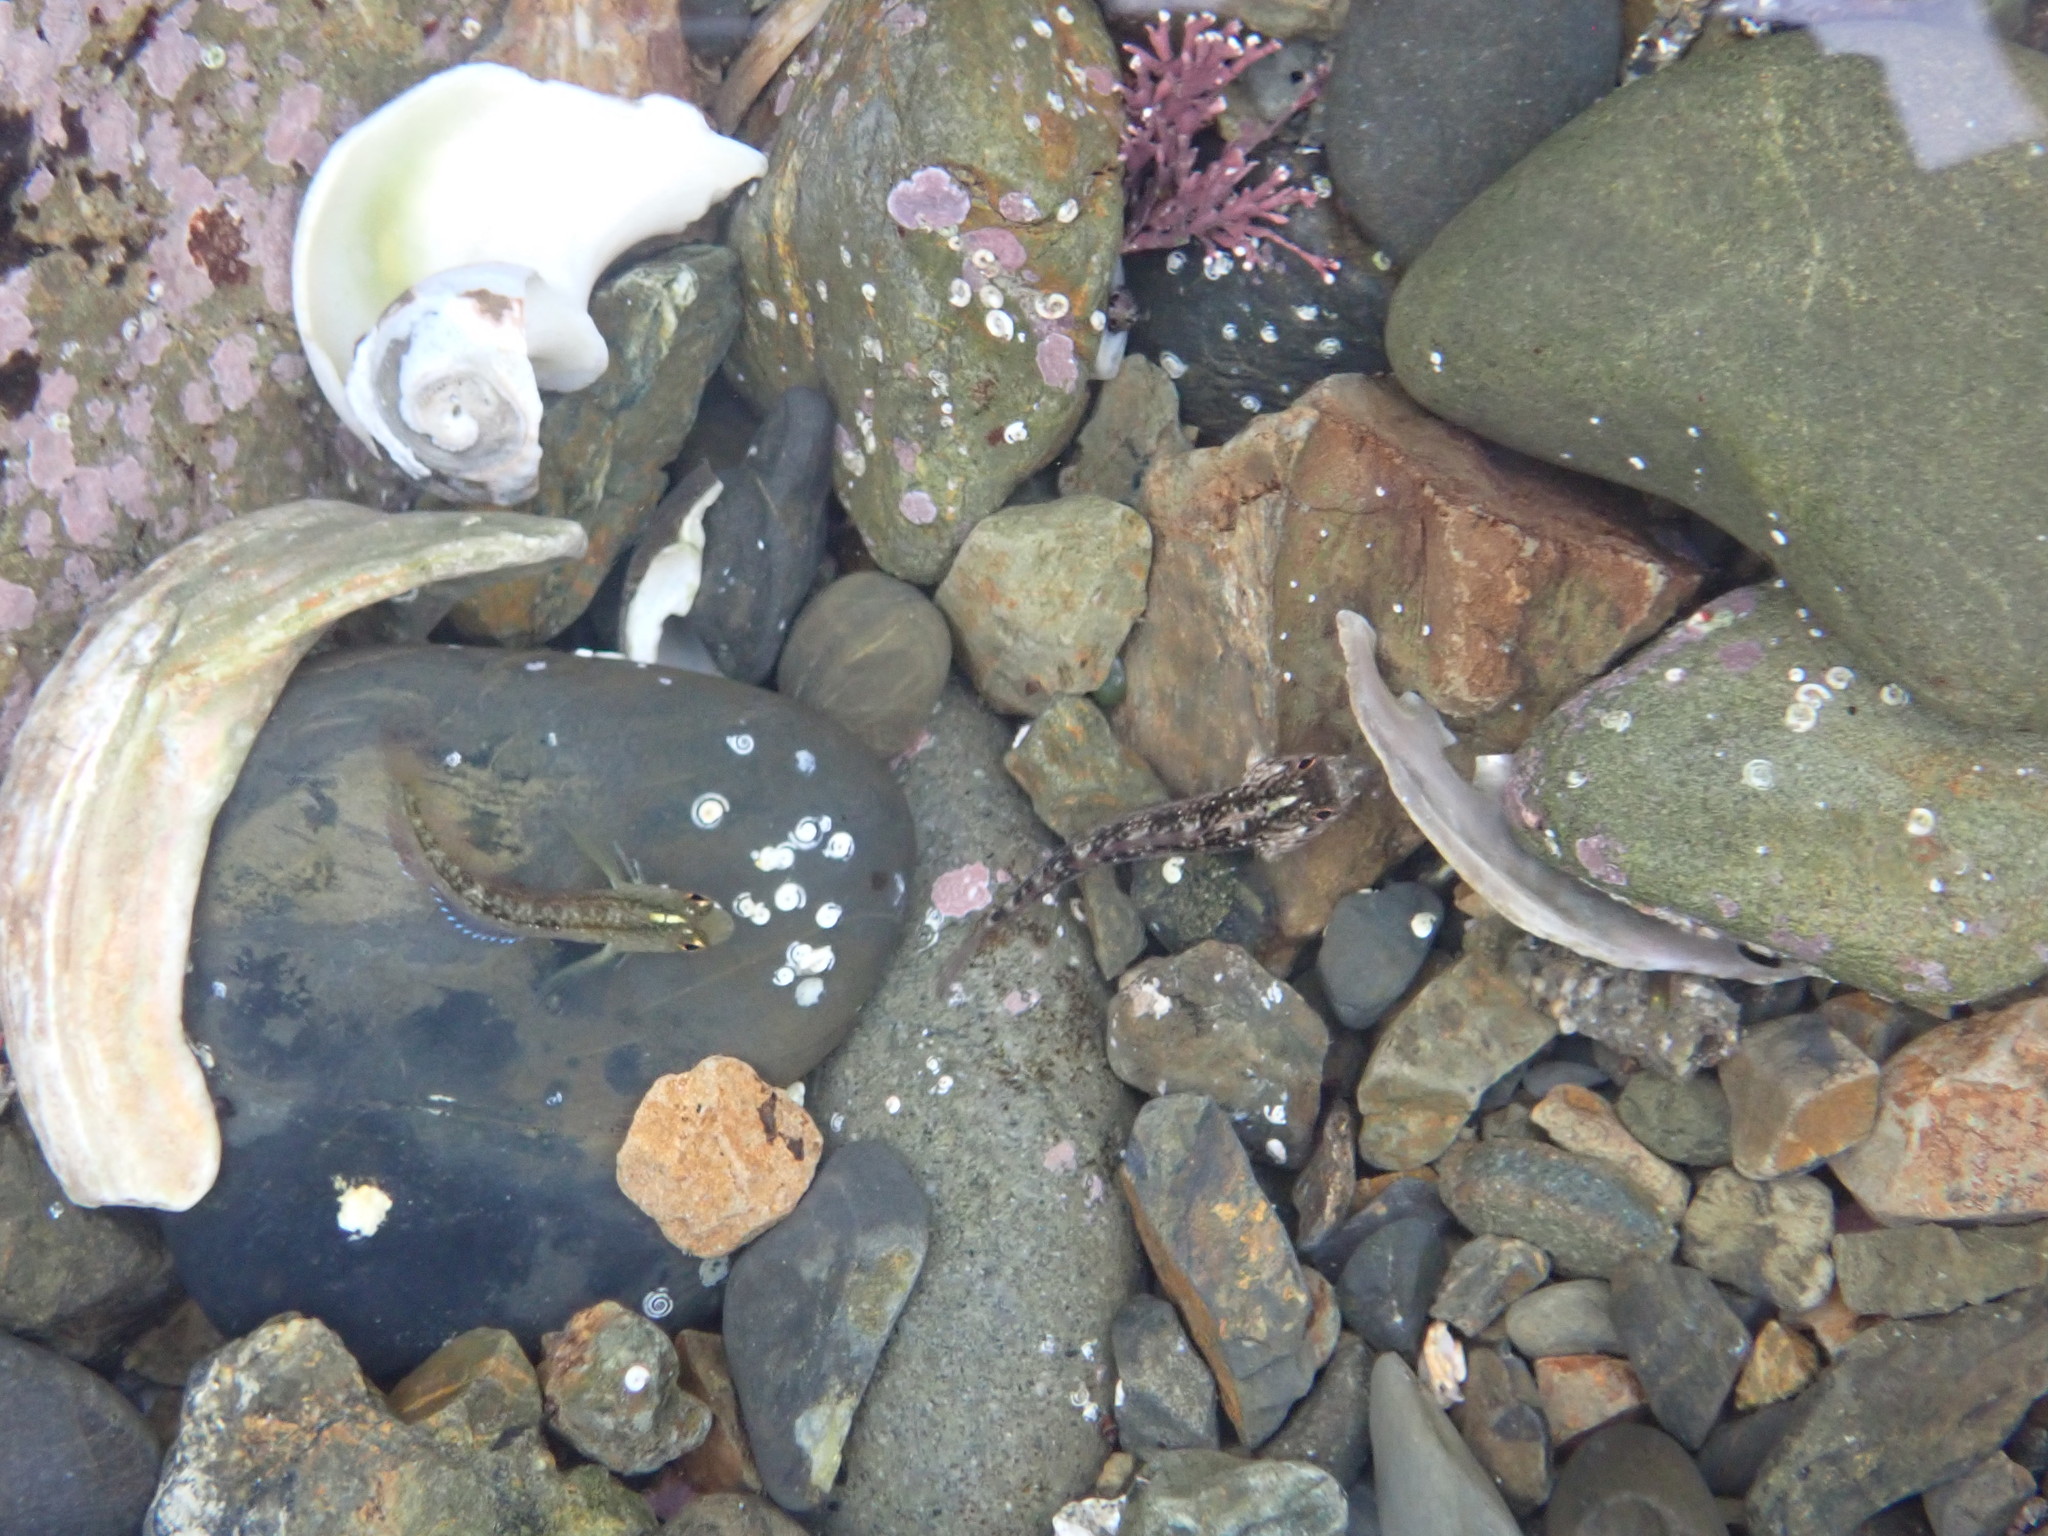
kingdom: Animalia
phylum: Chordata
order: Perciformes
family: Tripterygiidae
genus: Forsterygion
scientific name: Forsterygion lapillum
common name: Common triplefin
